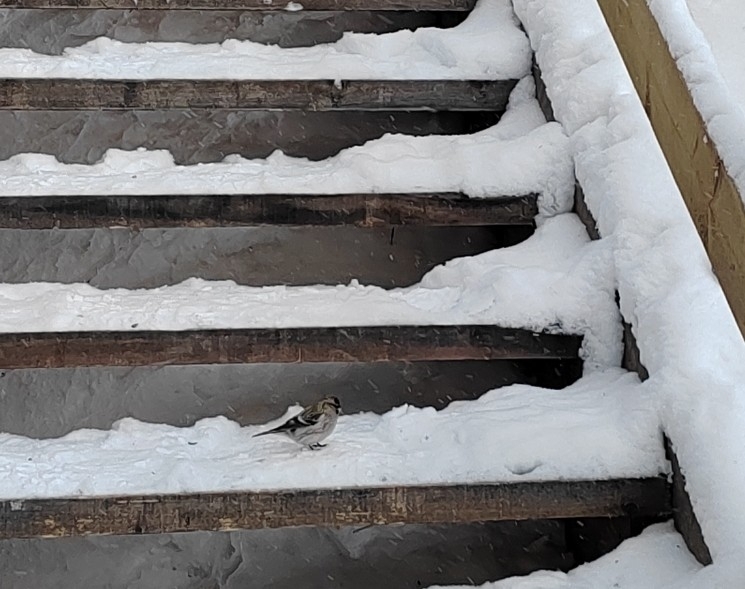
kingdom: Animalia
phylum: Chordata
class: Aves
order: Passeriformes
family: Fringillidae
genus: Acanthis
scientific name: Acanthis flammea
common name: Common redpoll
